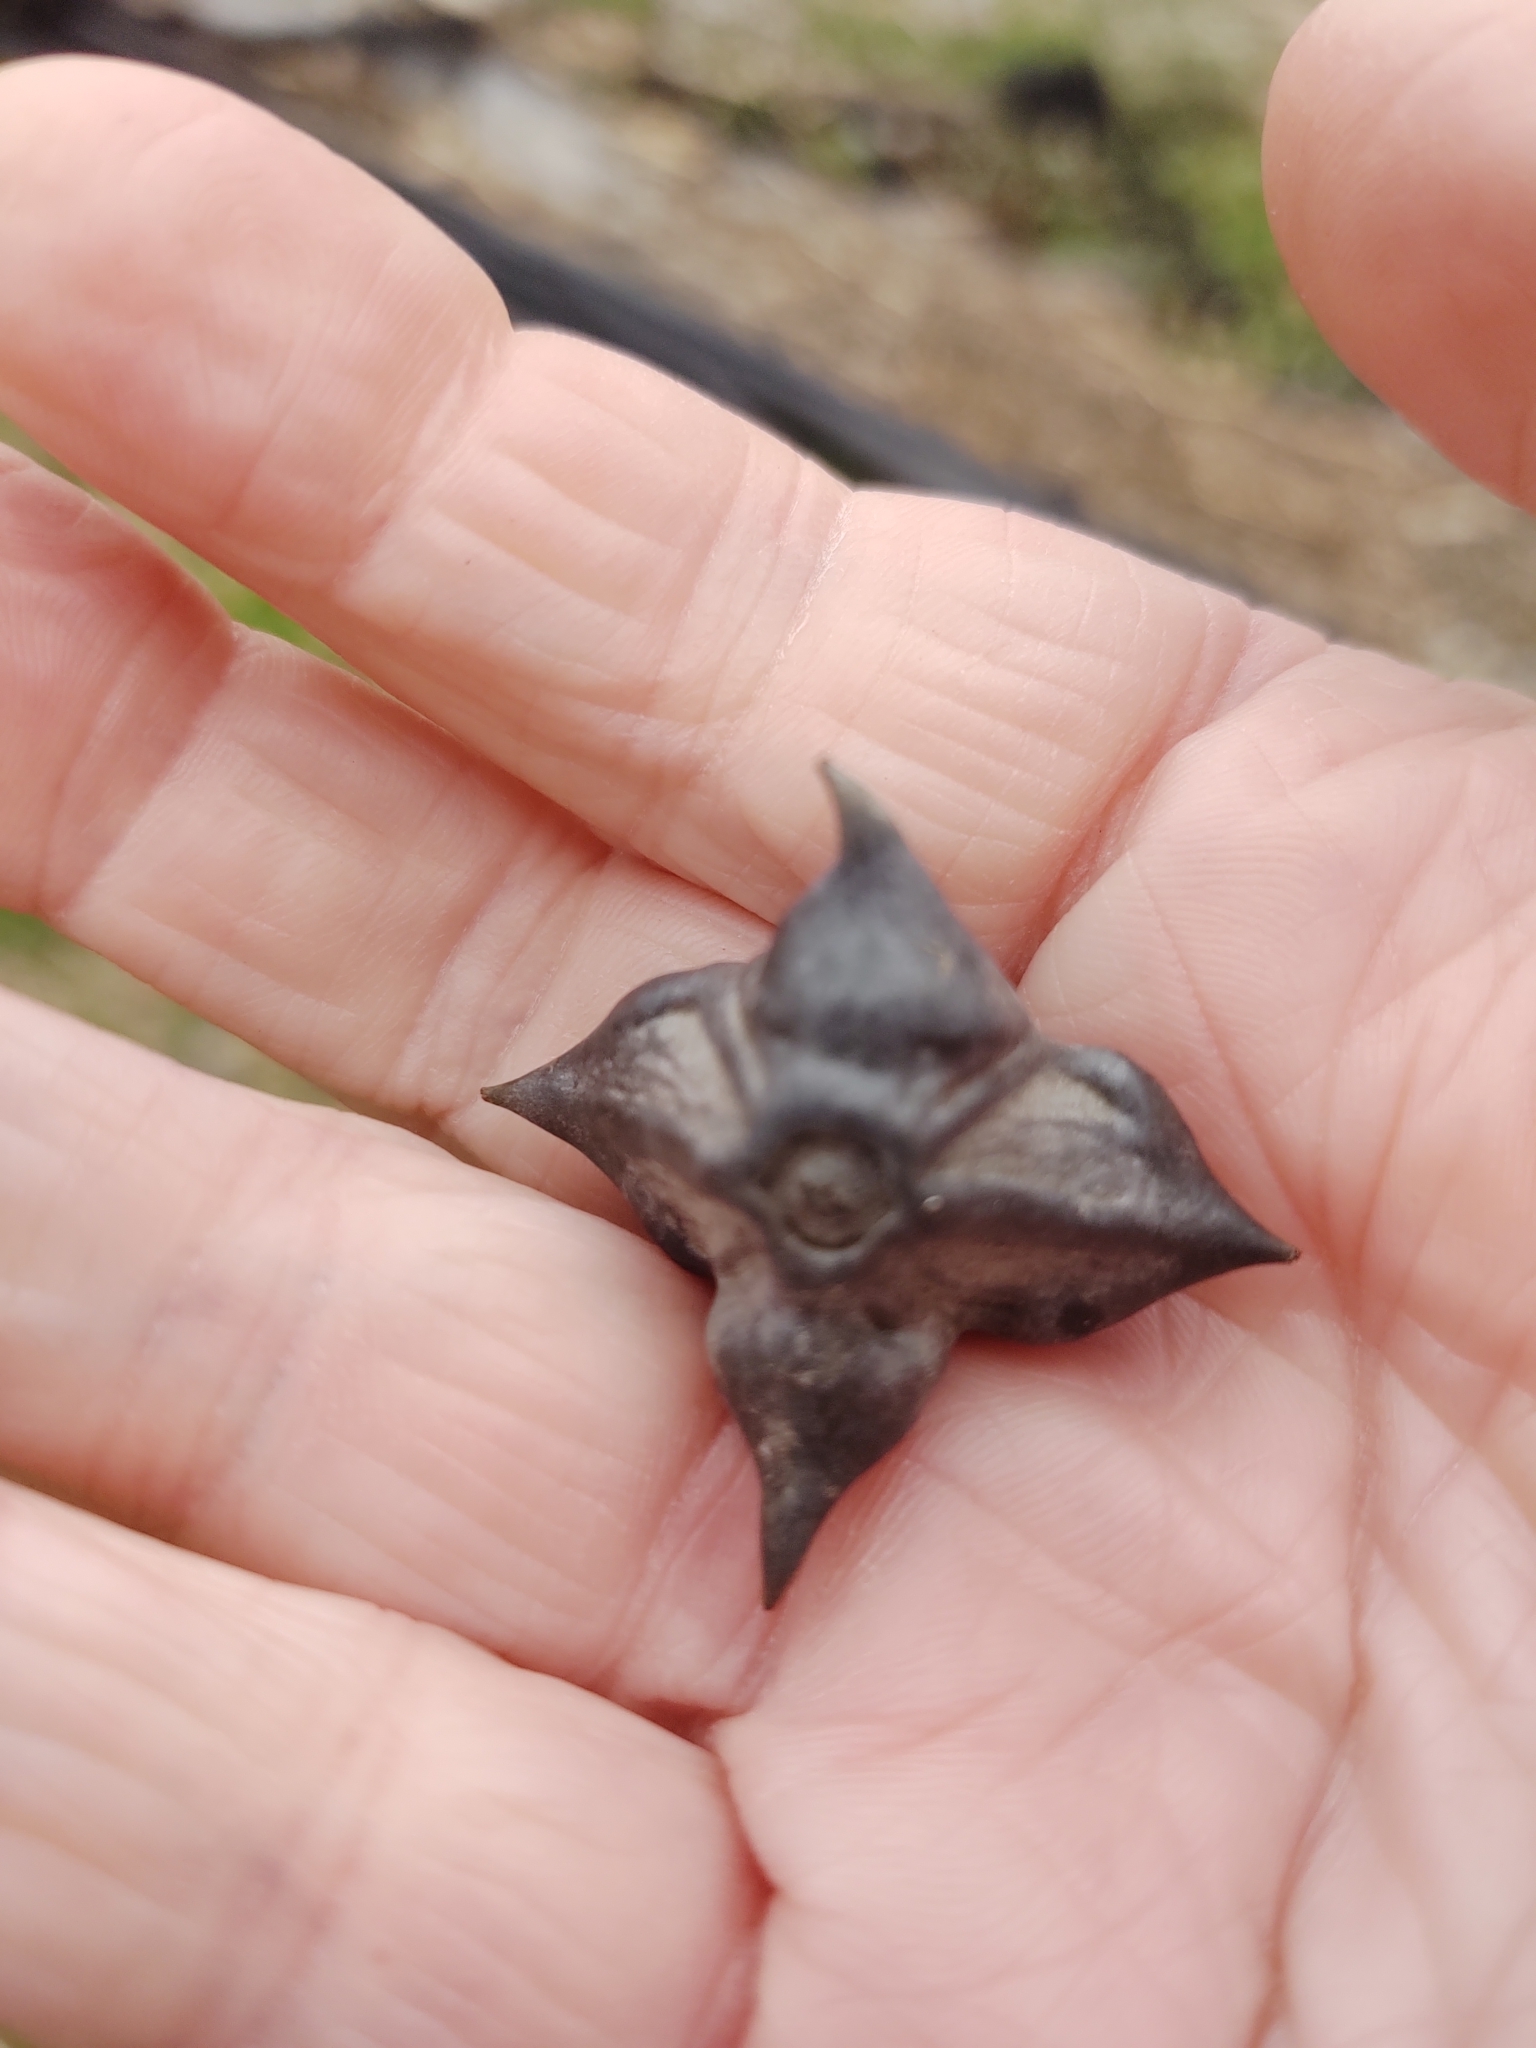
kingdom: Plantae
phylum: Tracheophyta
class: Magnoliopsida
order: Myrtales
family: Lythraceae
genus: Trapa
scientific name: Trapa natans
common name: Water chestnut
